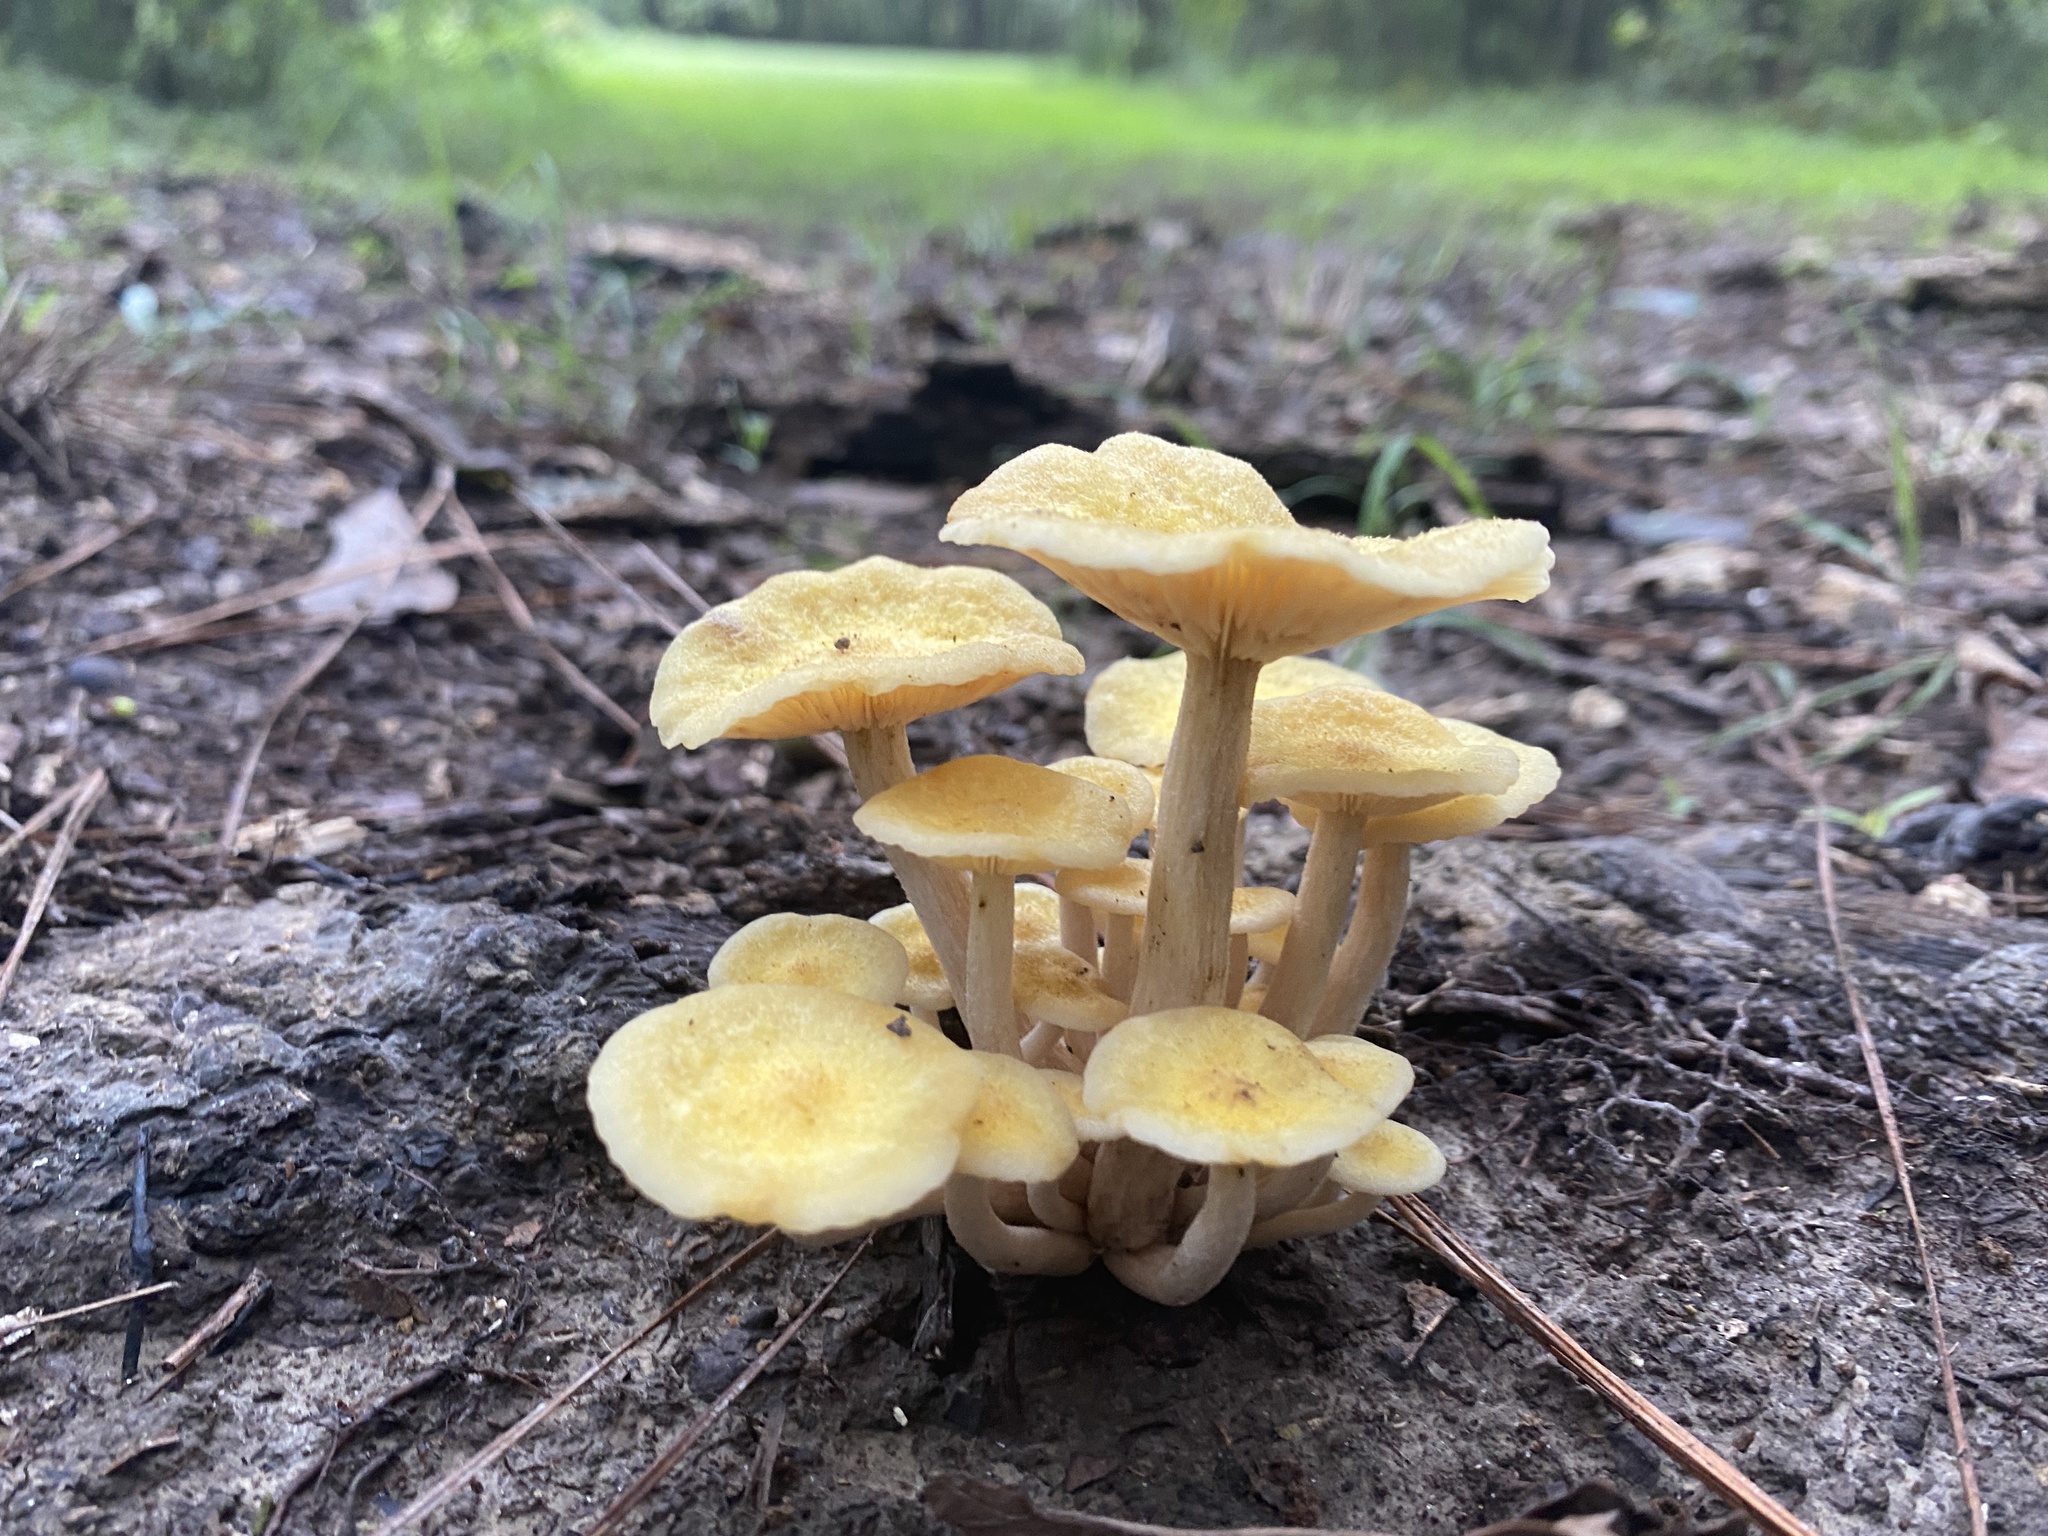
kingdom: Fungi
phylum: Basidiomycota
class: Agaricomycetes
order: Agaricales
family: Physalacriaceae
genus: Desarmillaria
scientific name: Desarmillaria caespitosa
